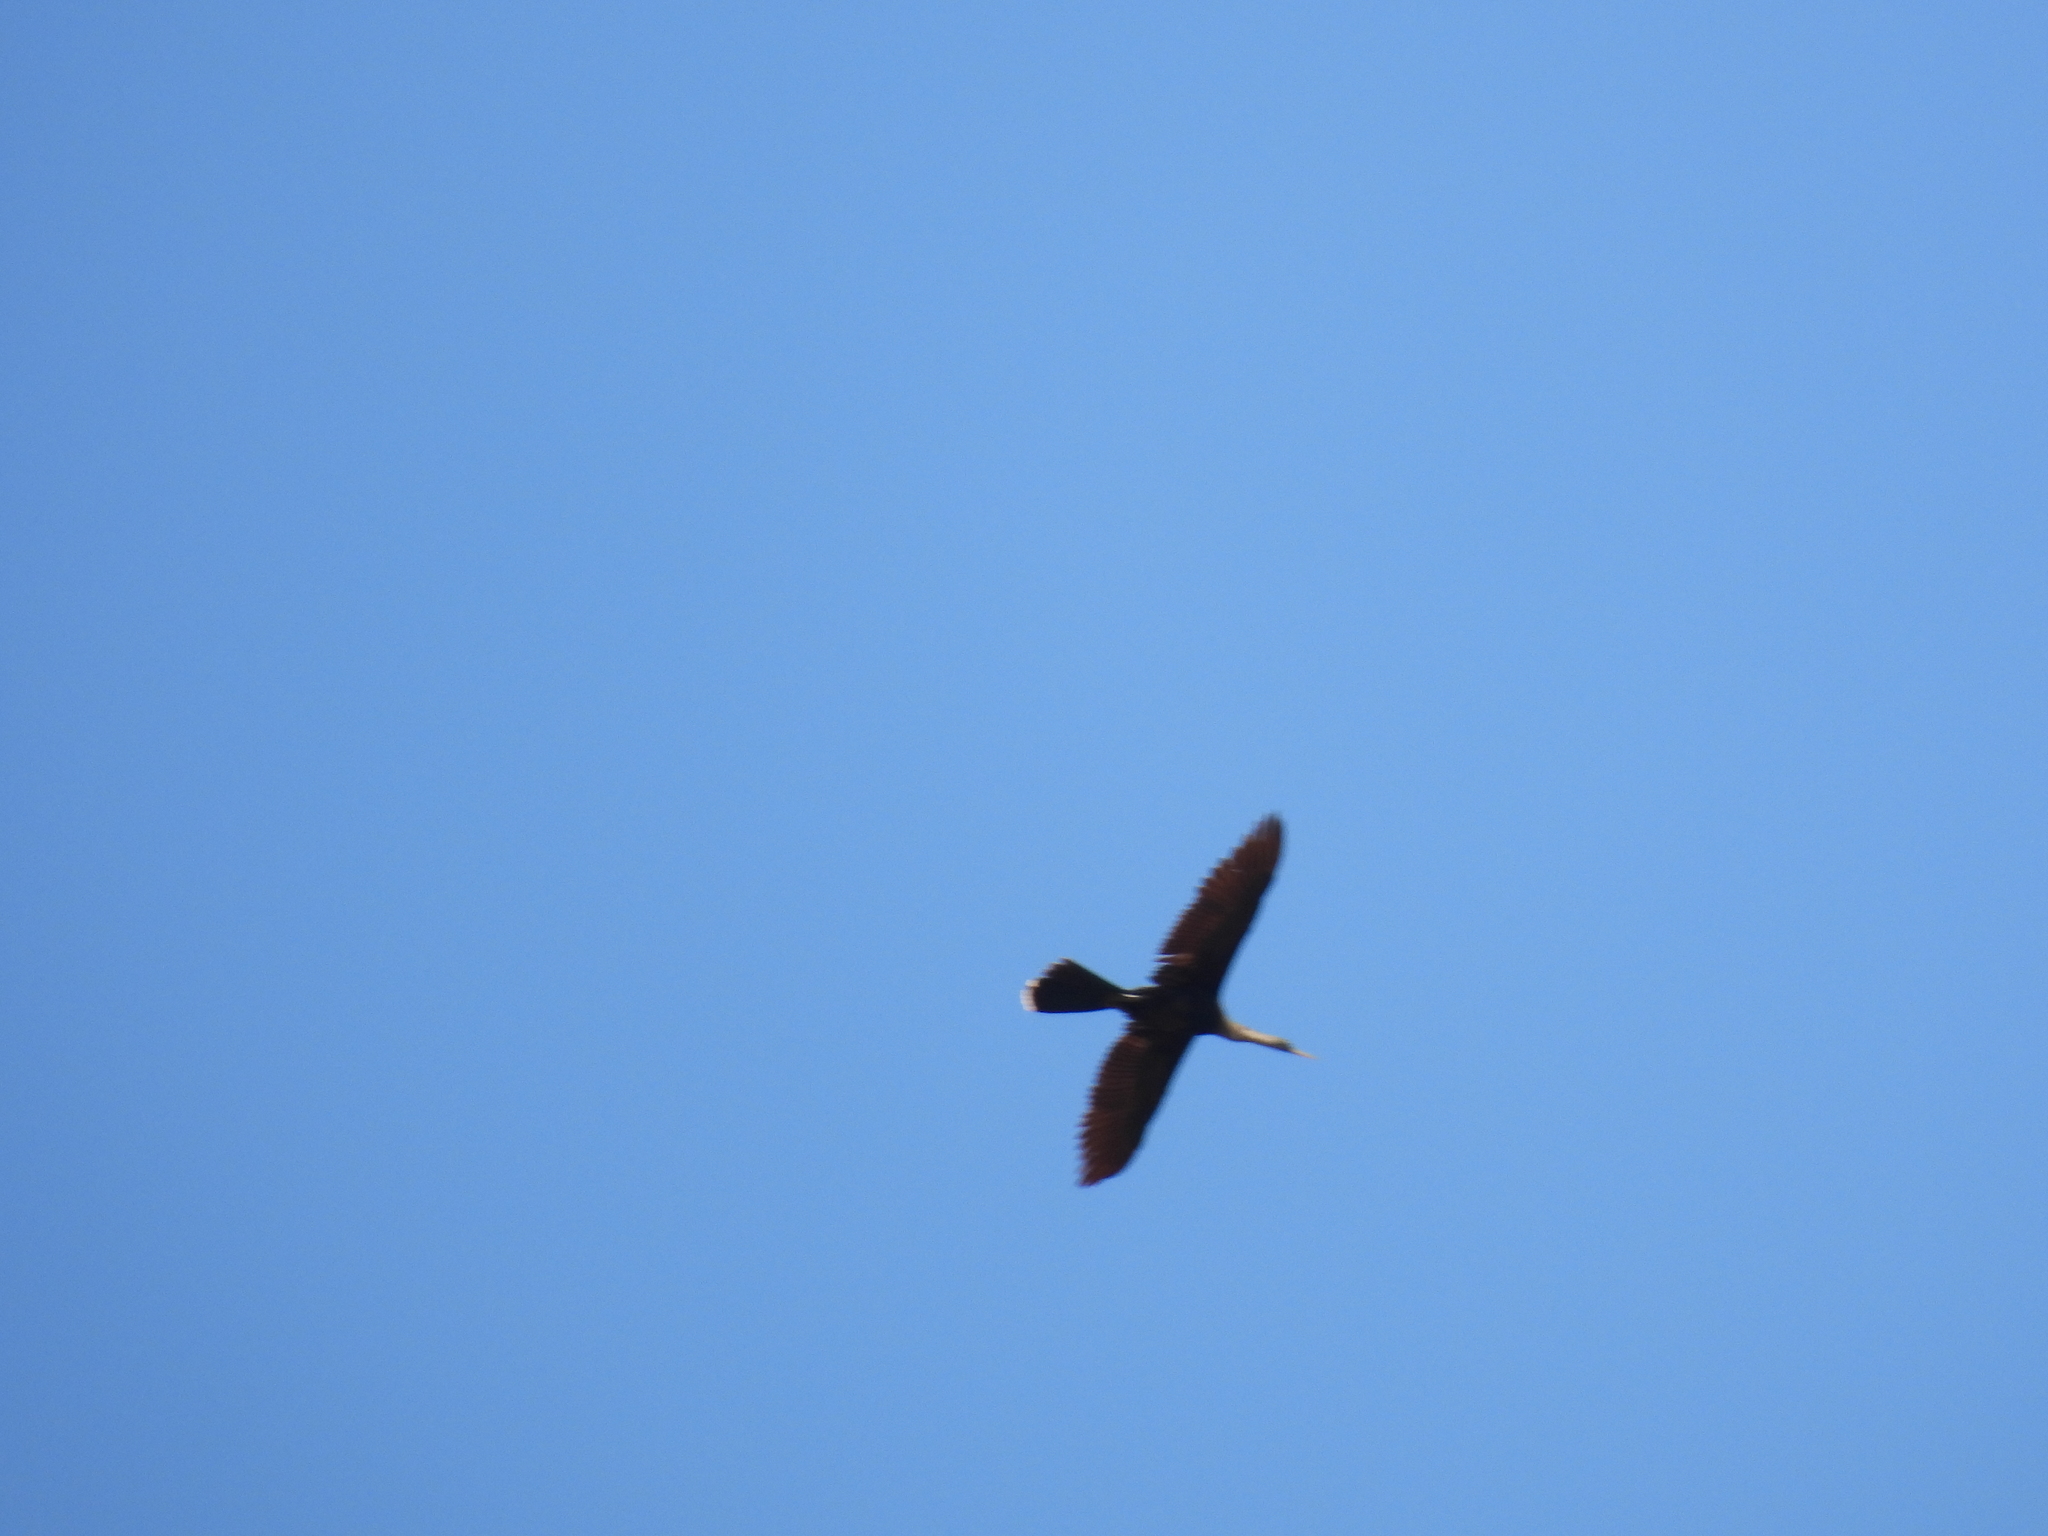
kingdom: Animalia
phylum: Chordata
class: Aves
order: Suliformes
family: Anhingidae
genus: Anhinga
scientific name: Anhinga anhinga
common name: Anhinga
